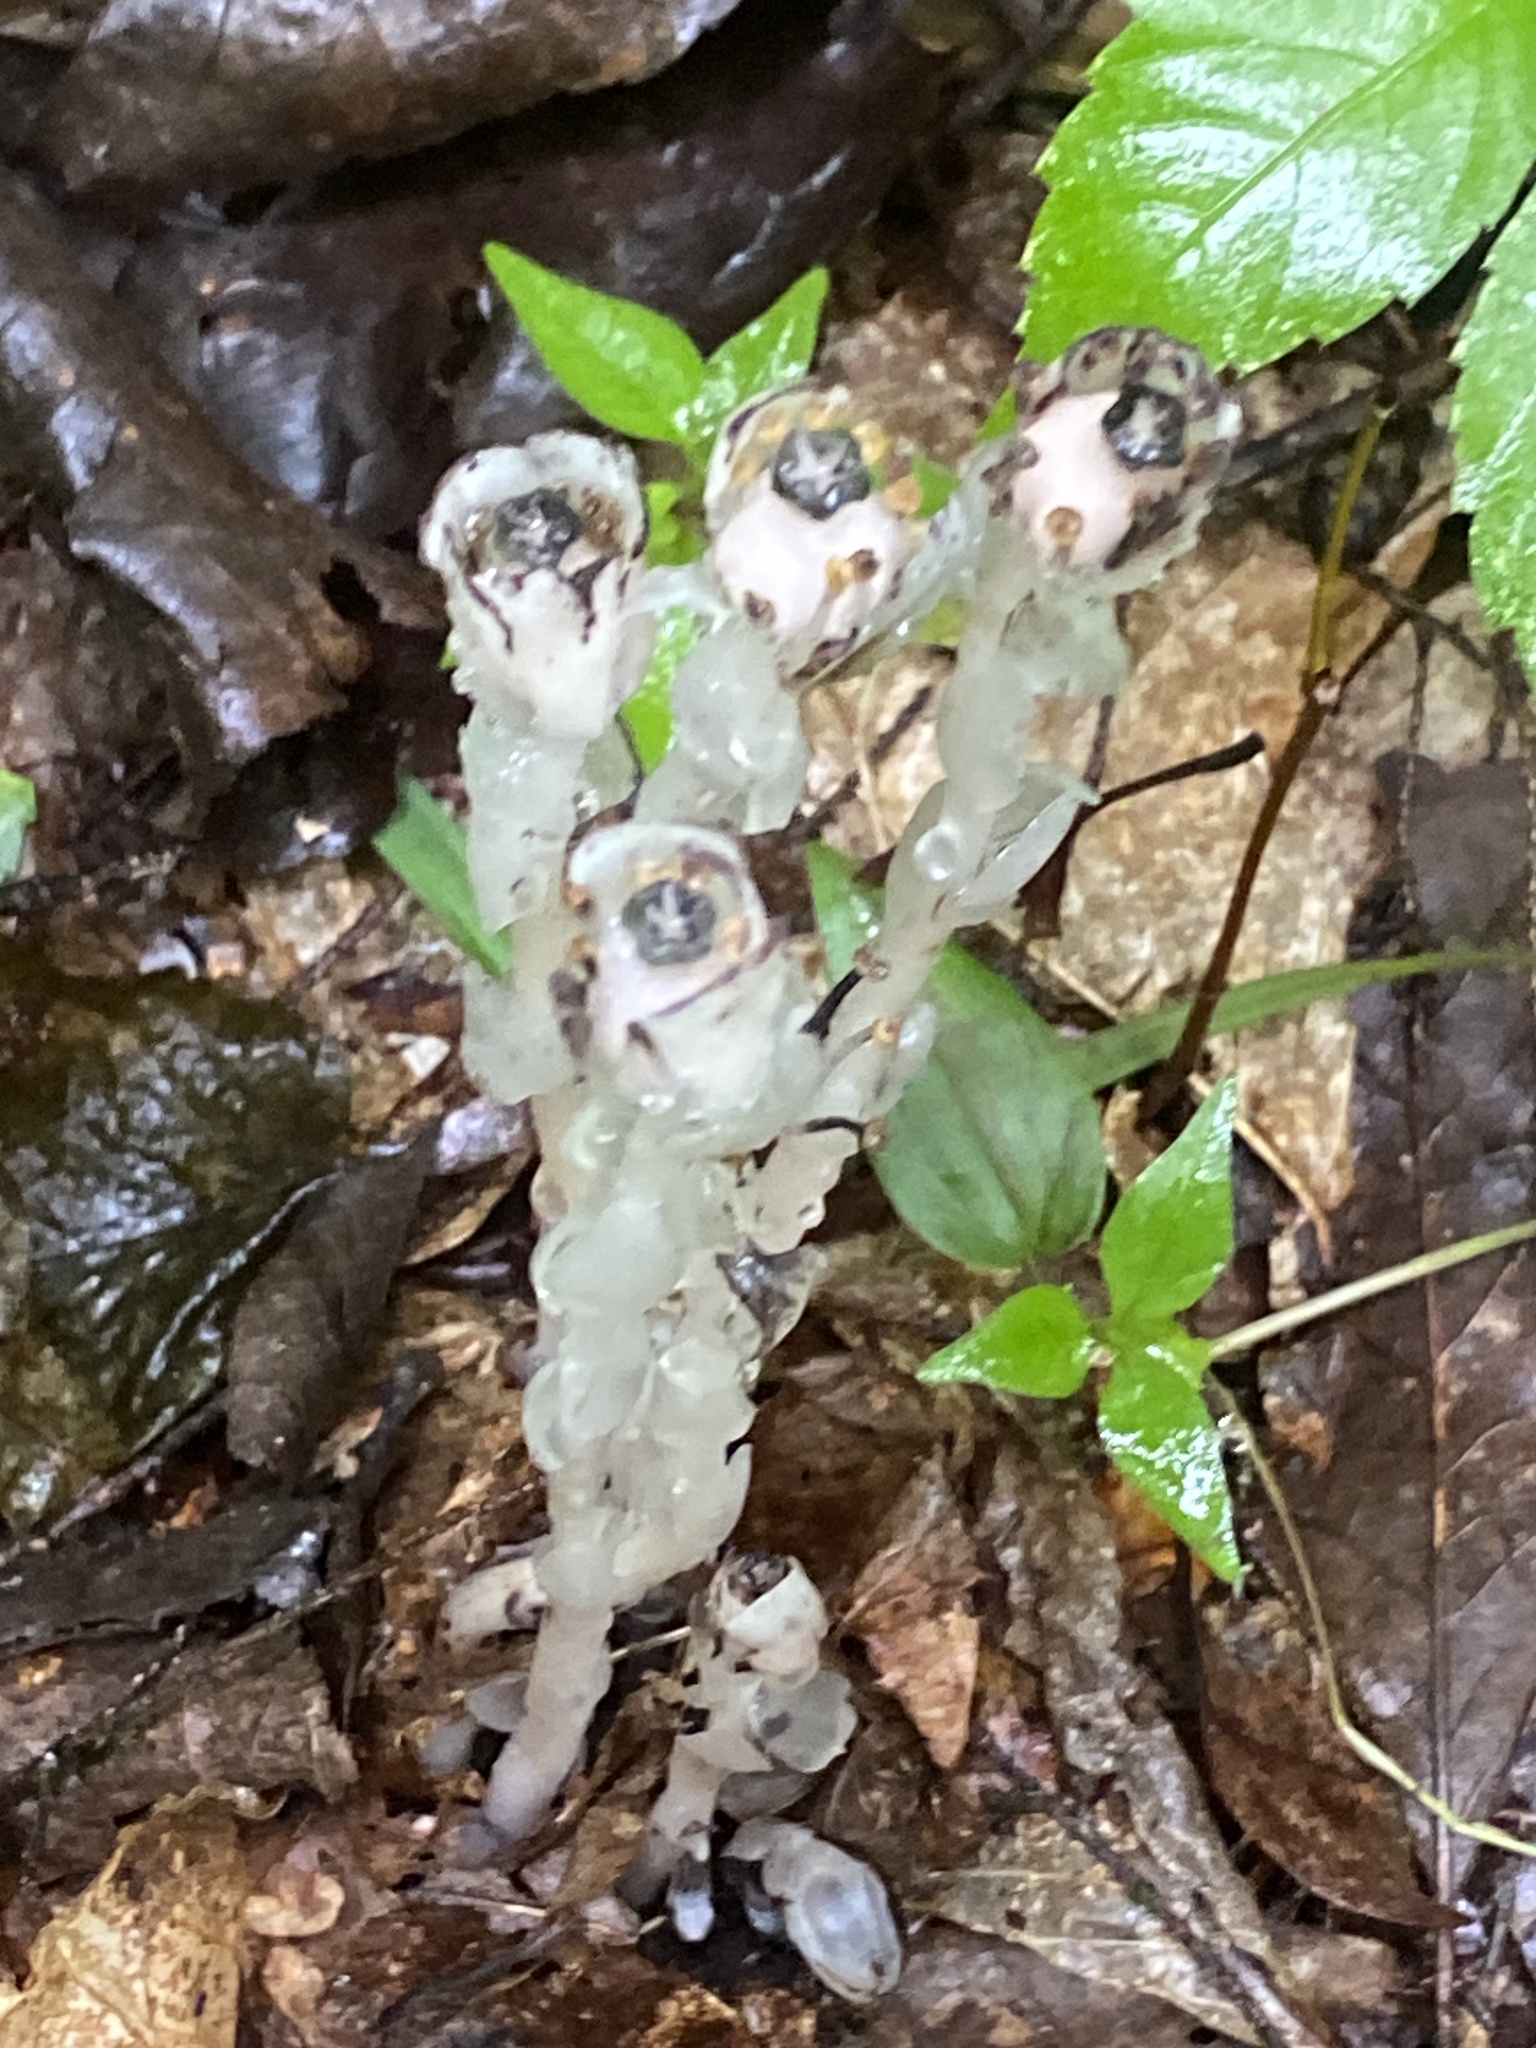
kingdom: Plantae
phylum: Tracheophyta
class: Magnoliopsida
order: Ericales
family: Ericaceae
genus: Monotropa
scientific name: Monotropa uniflora
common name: Convulsion root
